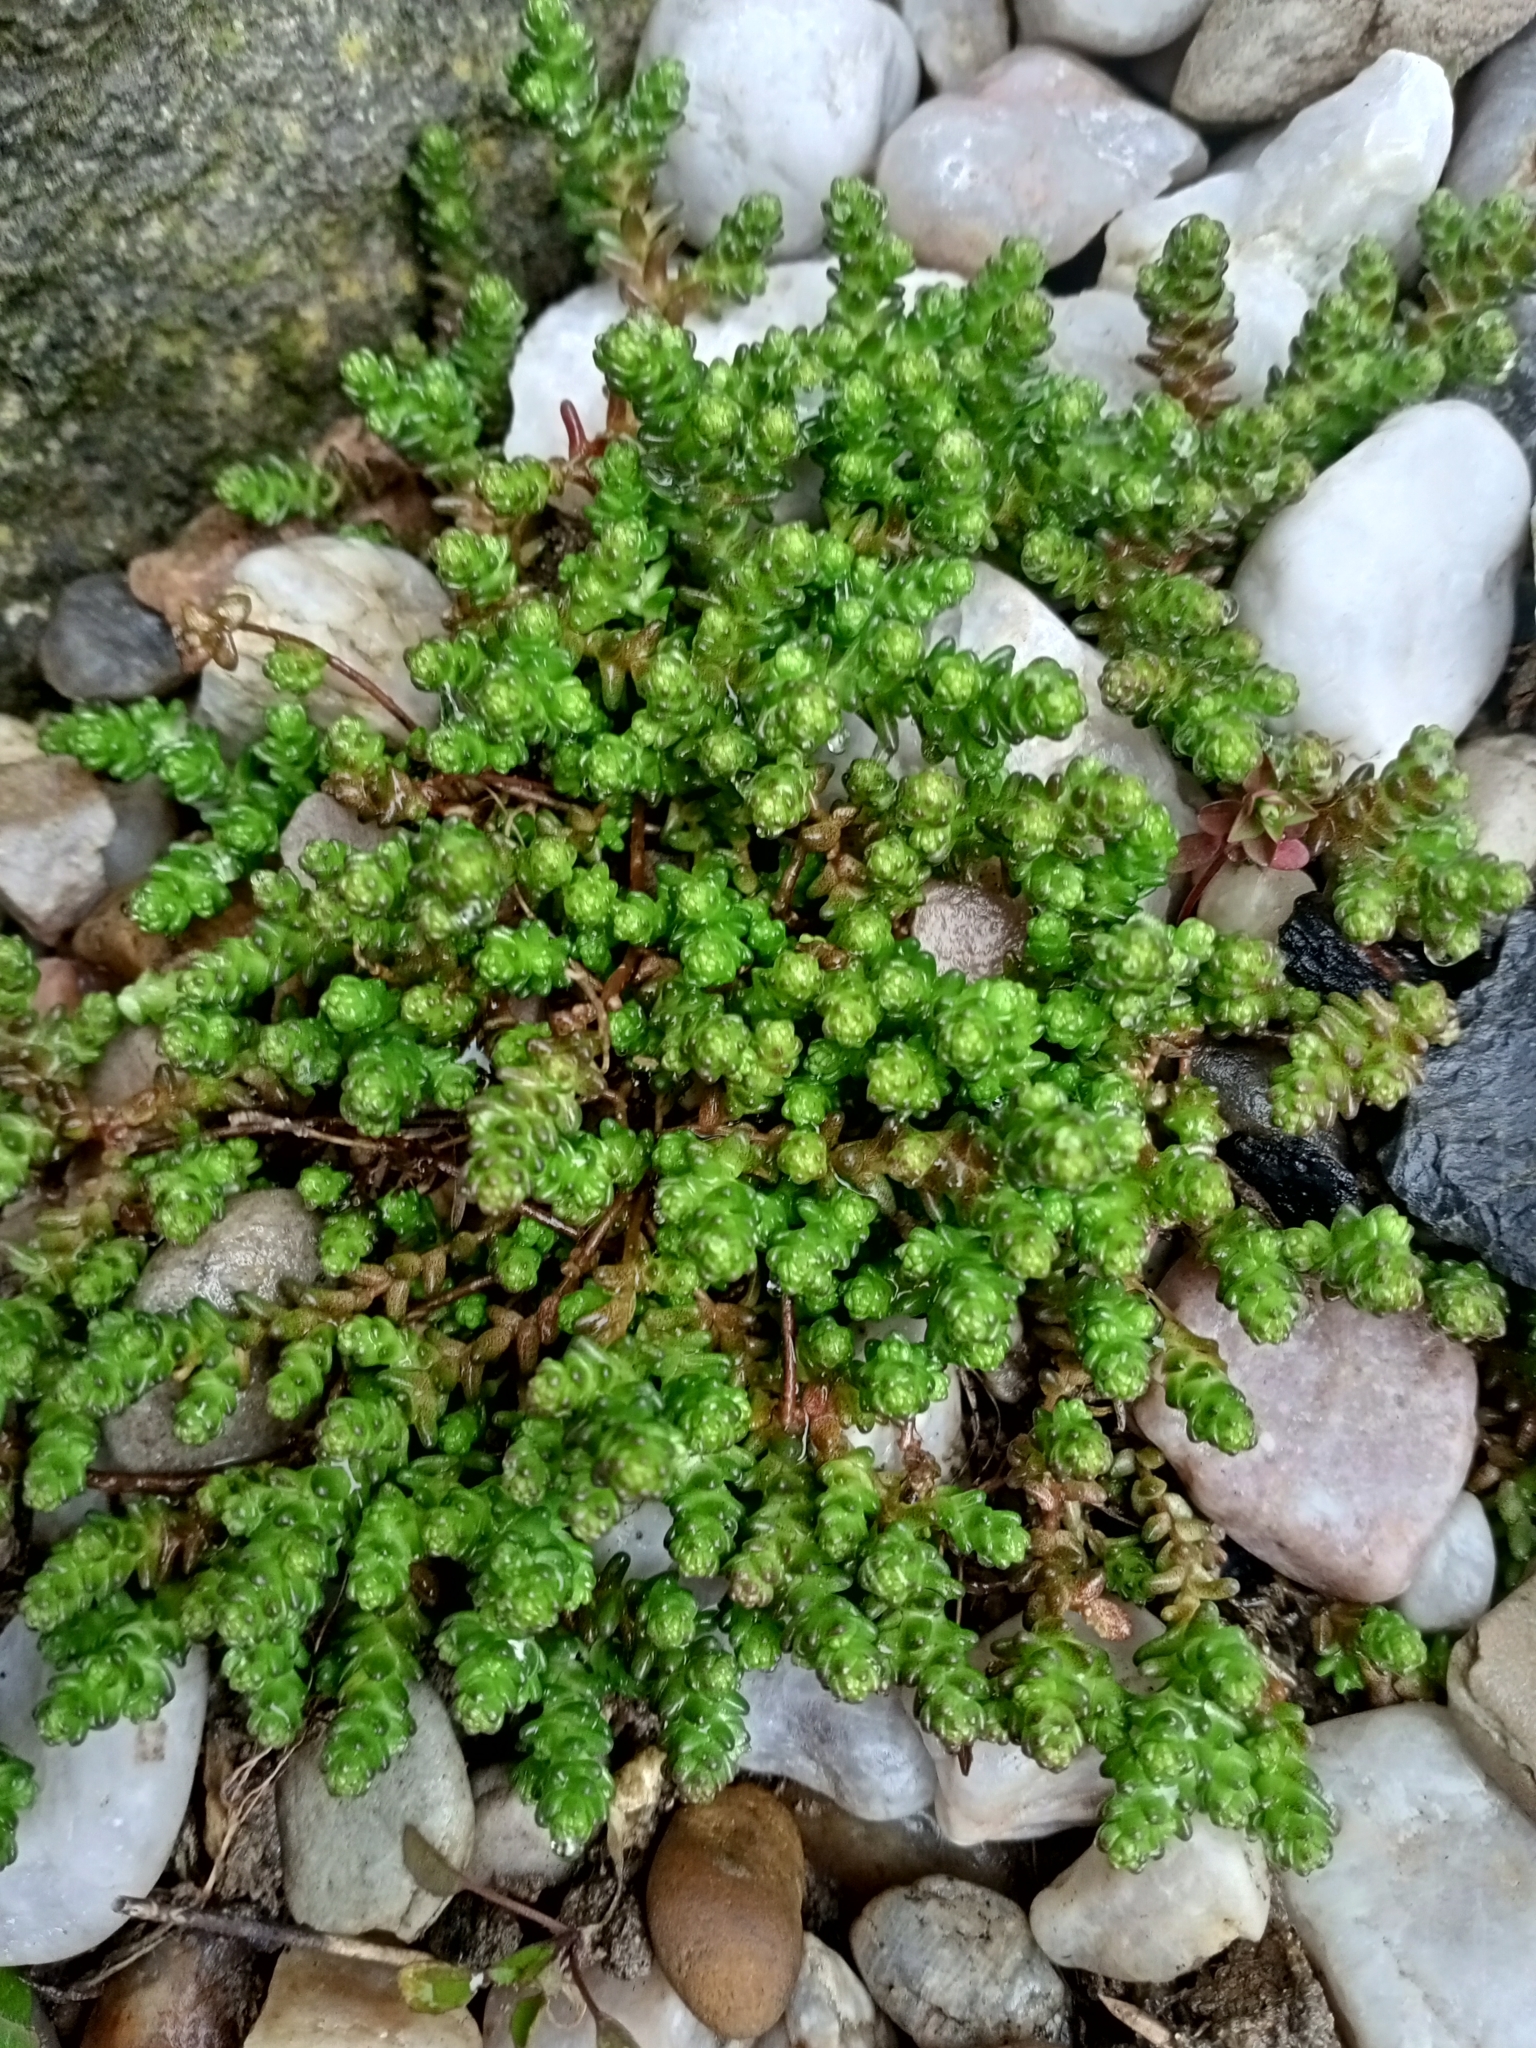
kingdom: Plantae
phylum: Tracheophyta
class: Magnoliopsida
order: Saxifragales
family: Crassulaceae
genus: Sedum
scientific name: Sedum acre
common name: Biting stonecrop
